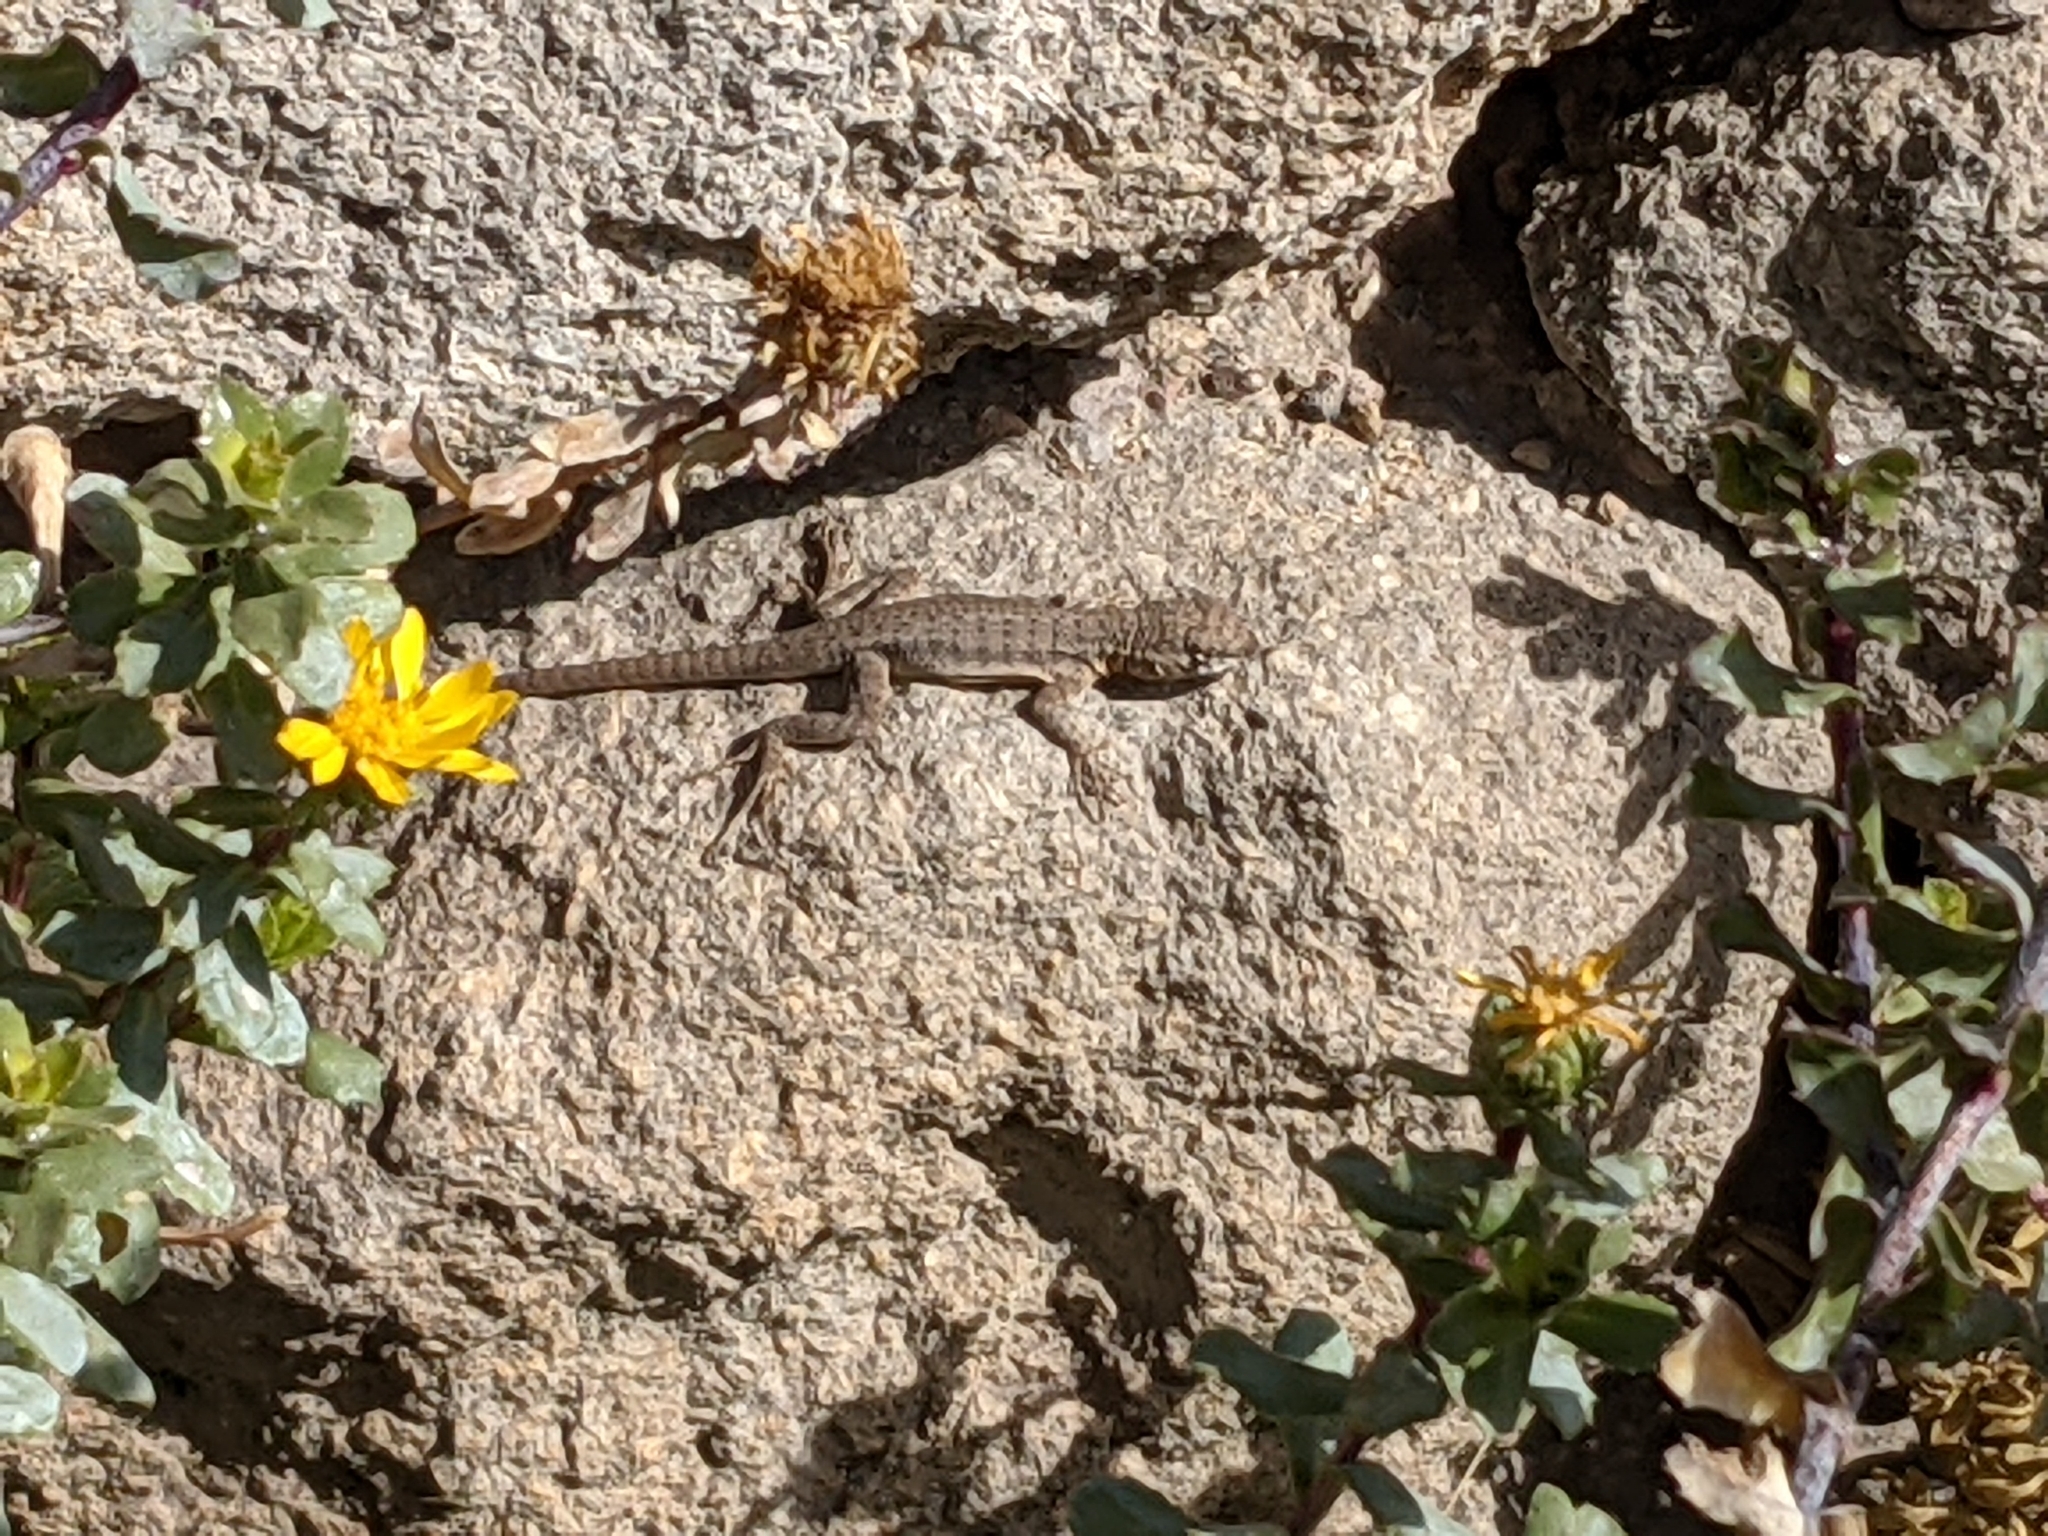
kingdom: Animalia
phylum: Chordata
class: Squamata
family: Liolaemidae
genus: Liolaemus
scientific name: Liolaemus annectens
